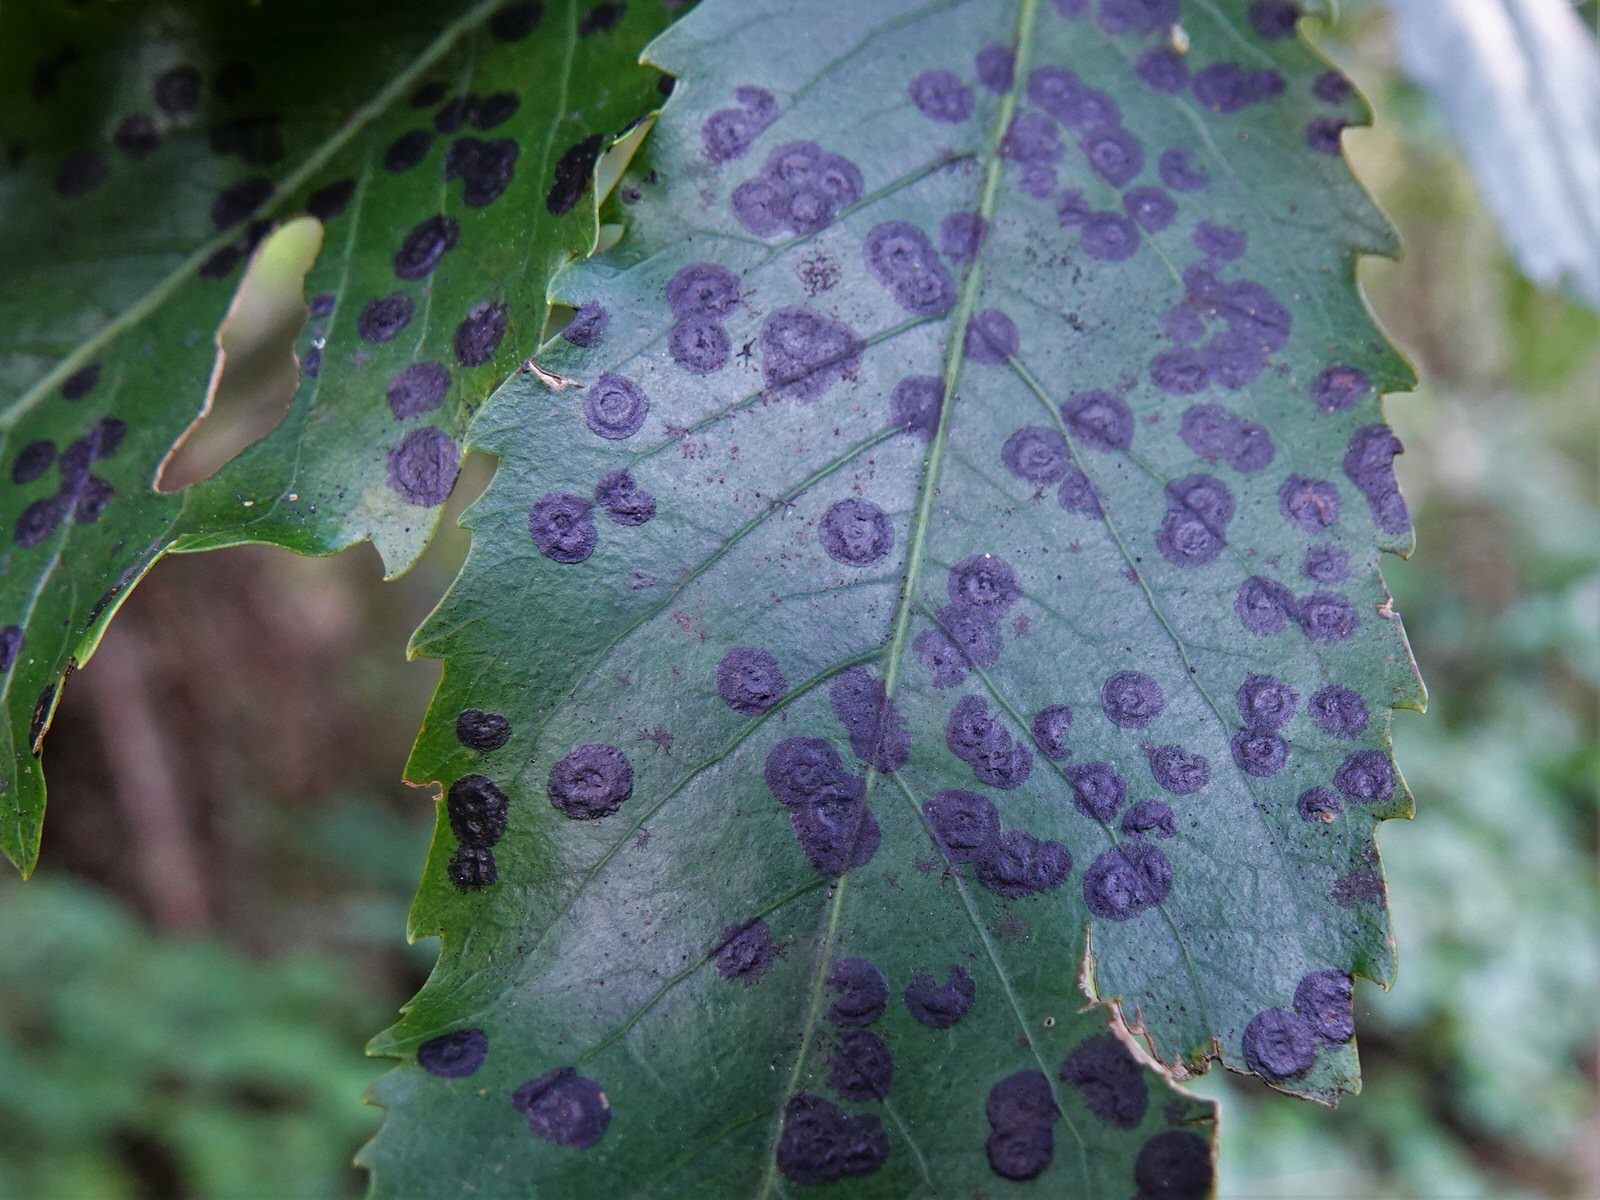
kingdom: Fungi
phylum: Ascomycota
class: Dothideomycetes
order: Asterinales
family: Asterinaceae
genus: Placosoma
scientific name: Placosoma nothopanacis
